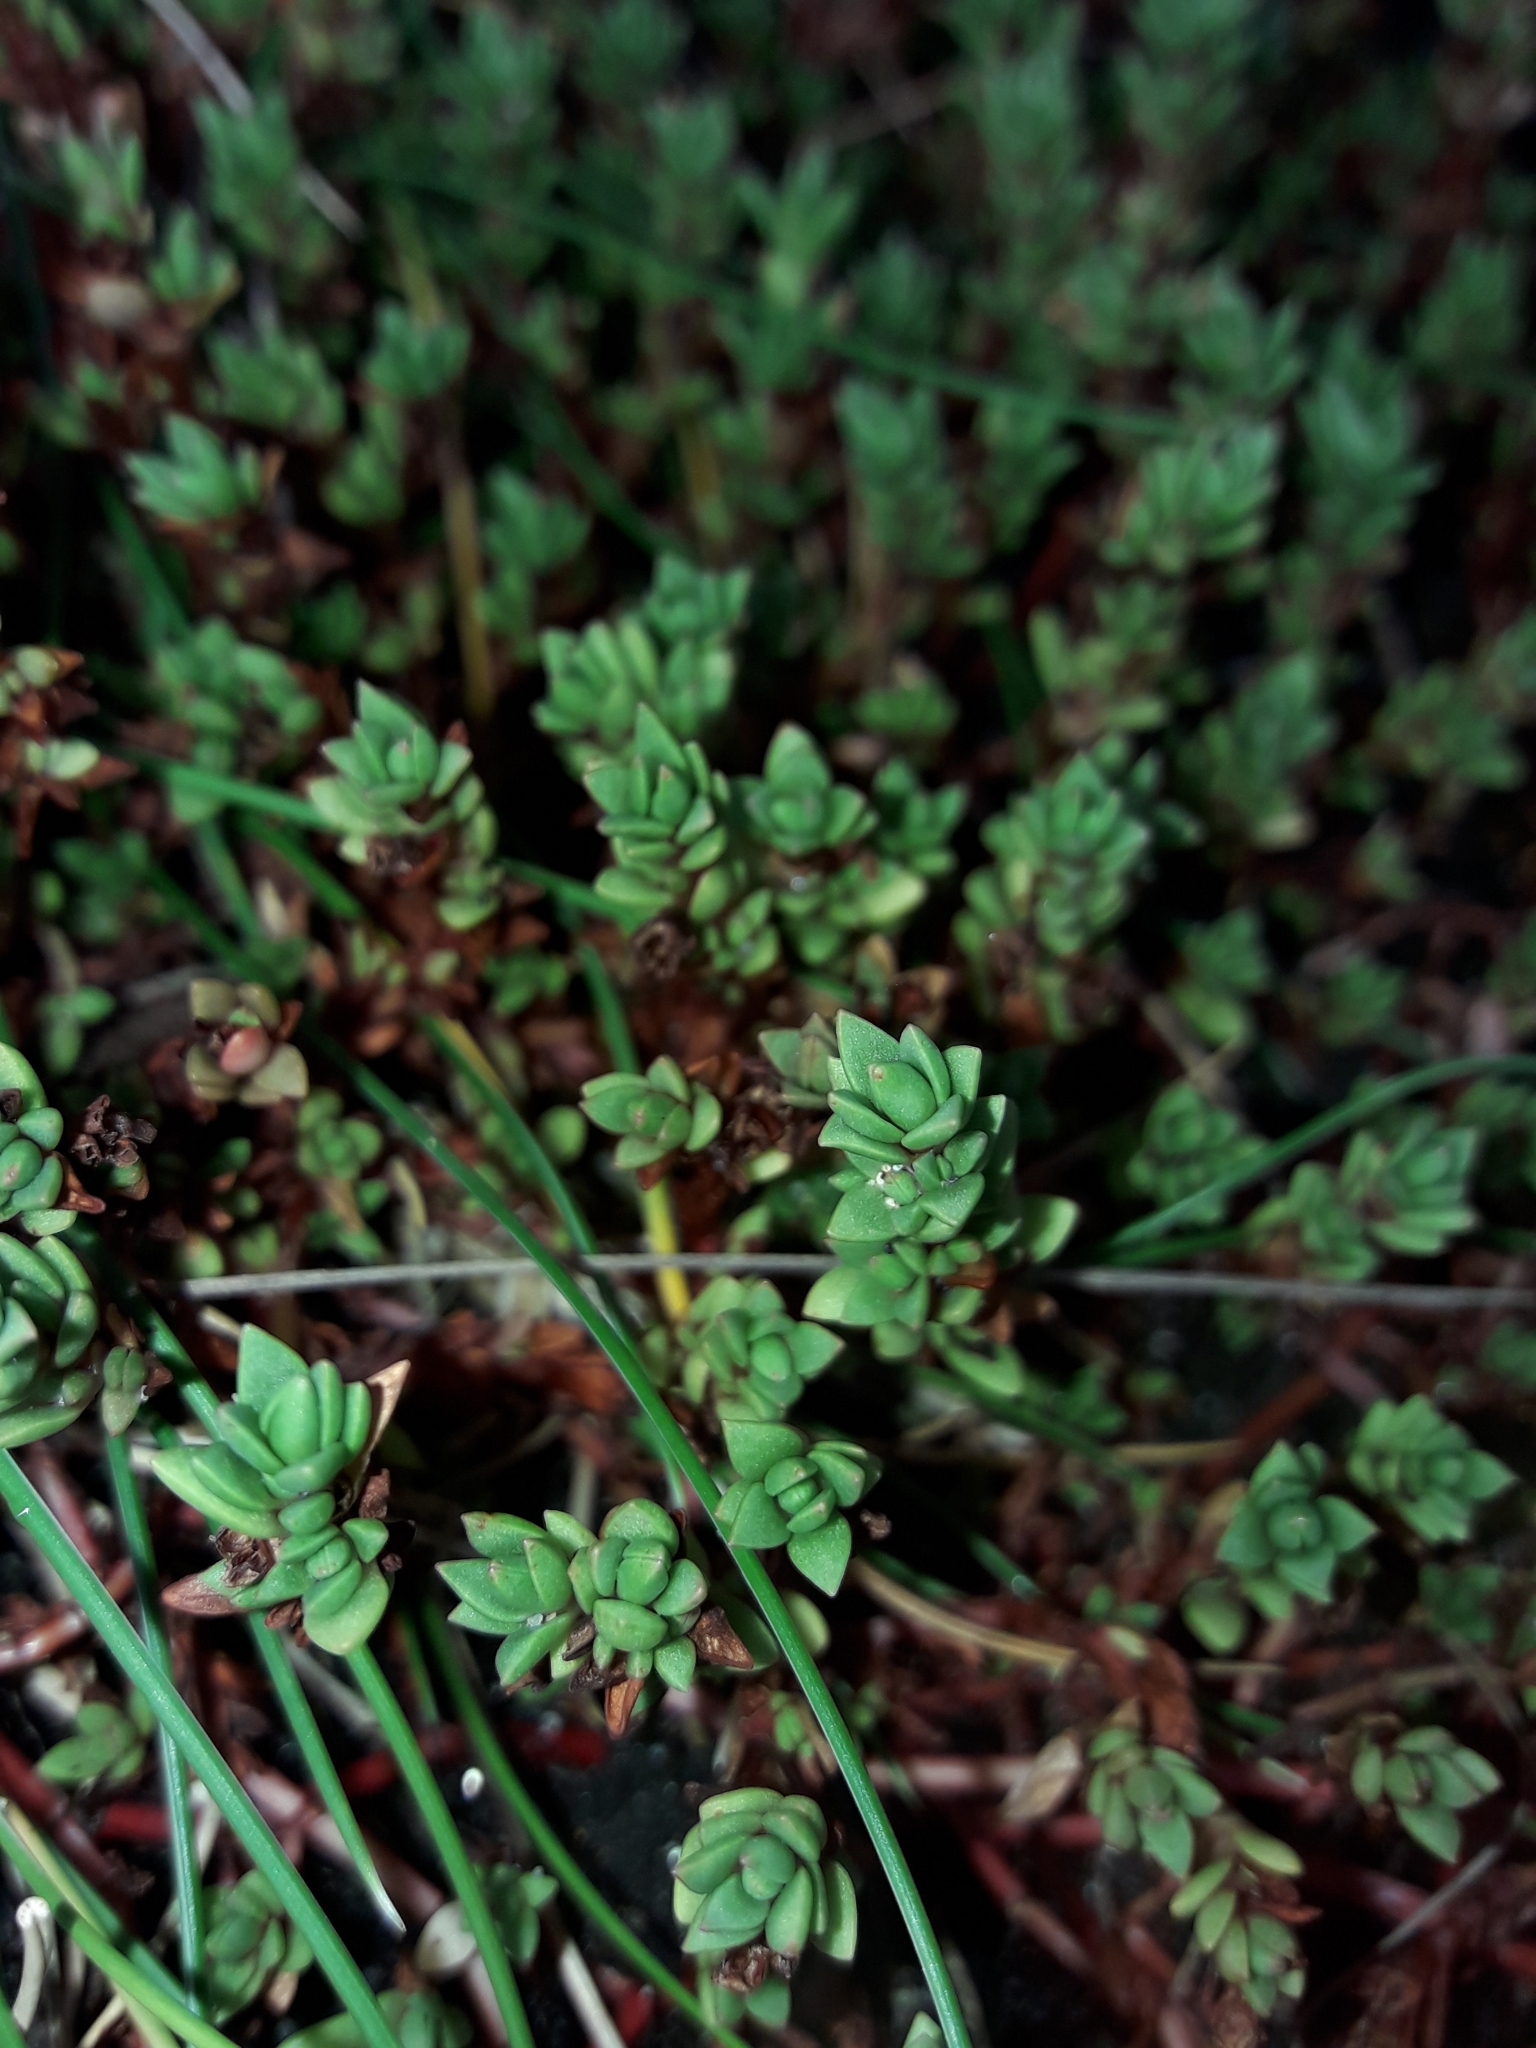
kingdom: Plantae
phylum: Tracheophyta
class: Magnoliopsida
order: Saxifragales
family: Crassulaceae
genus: Crassula
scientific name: Crassula moschata
